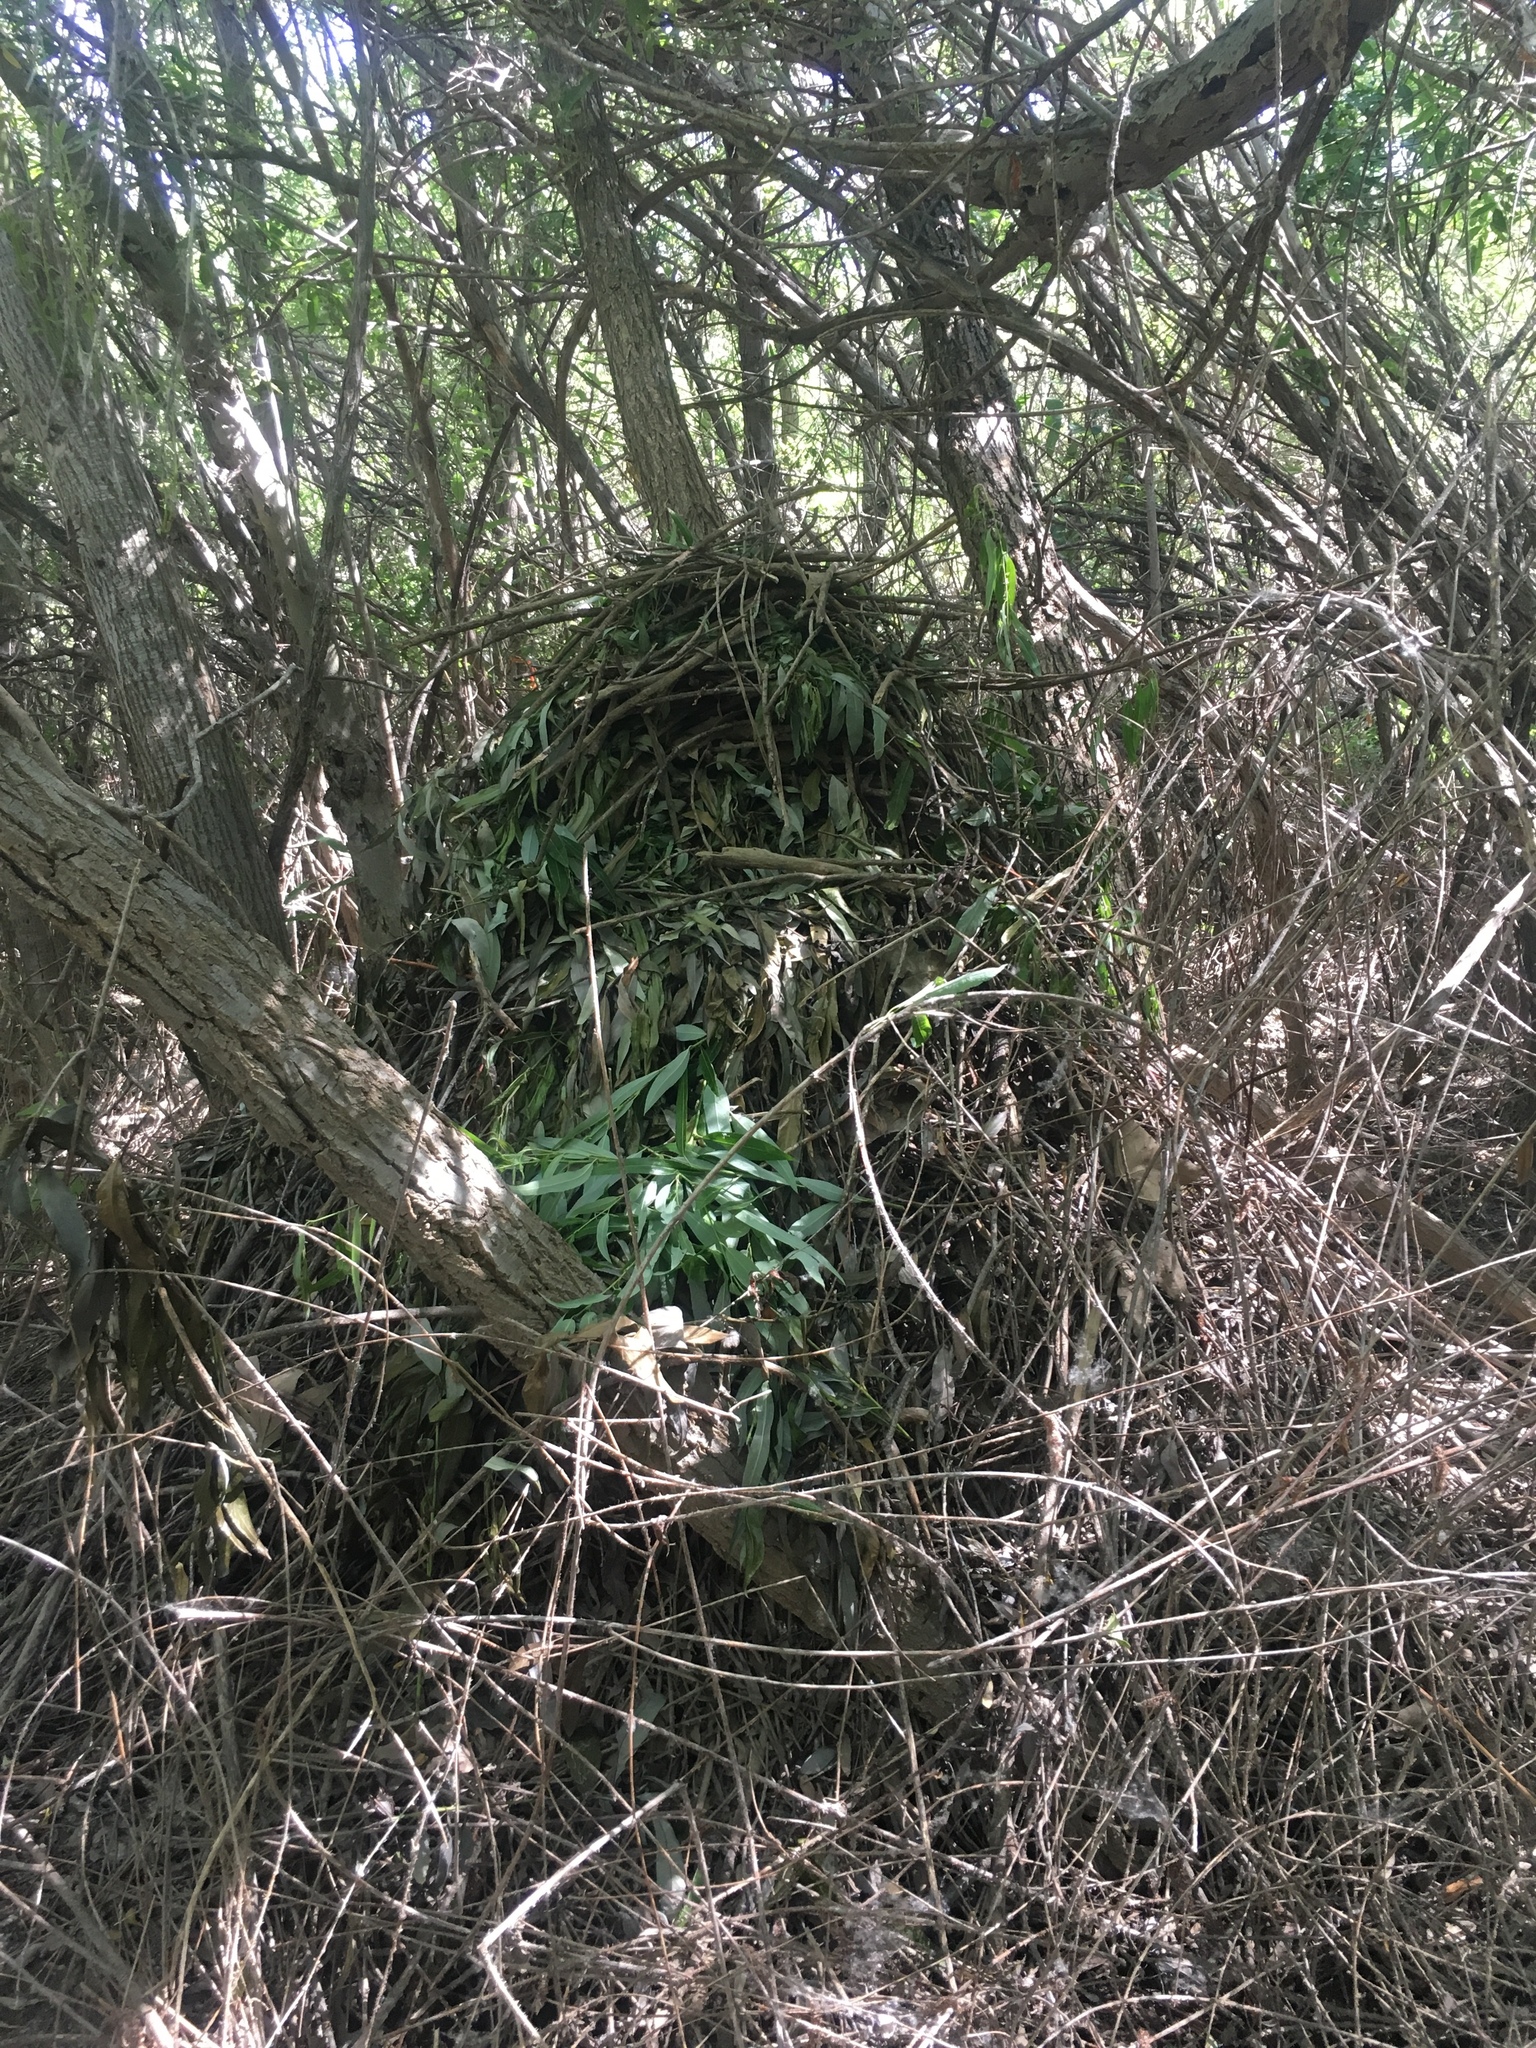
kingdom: Animalia
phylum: Chordata
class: Mammalia
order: Rodentia
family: Cricetidae
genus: Neotoma
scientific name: Neotoma fuscipes
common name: Dusky-footed woodrat
